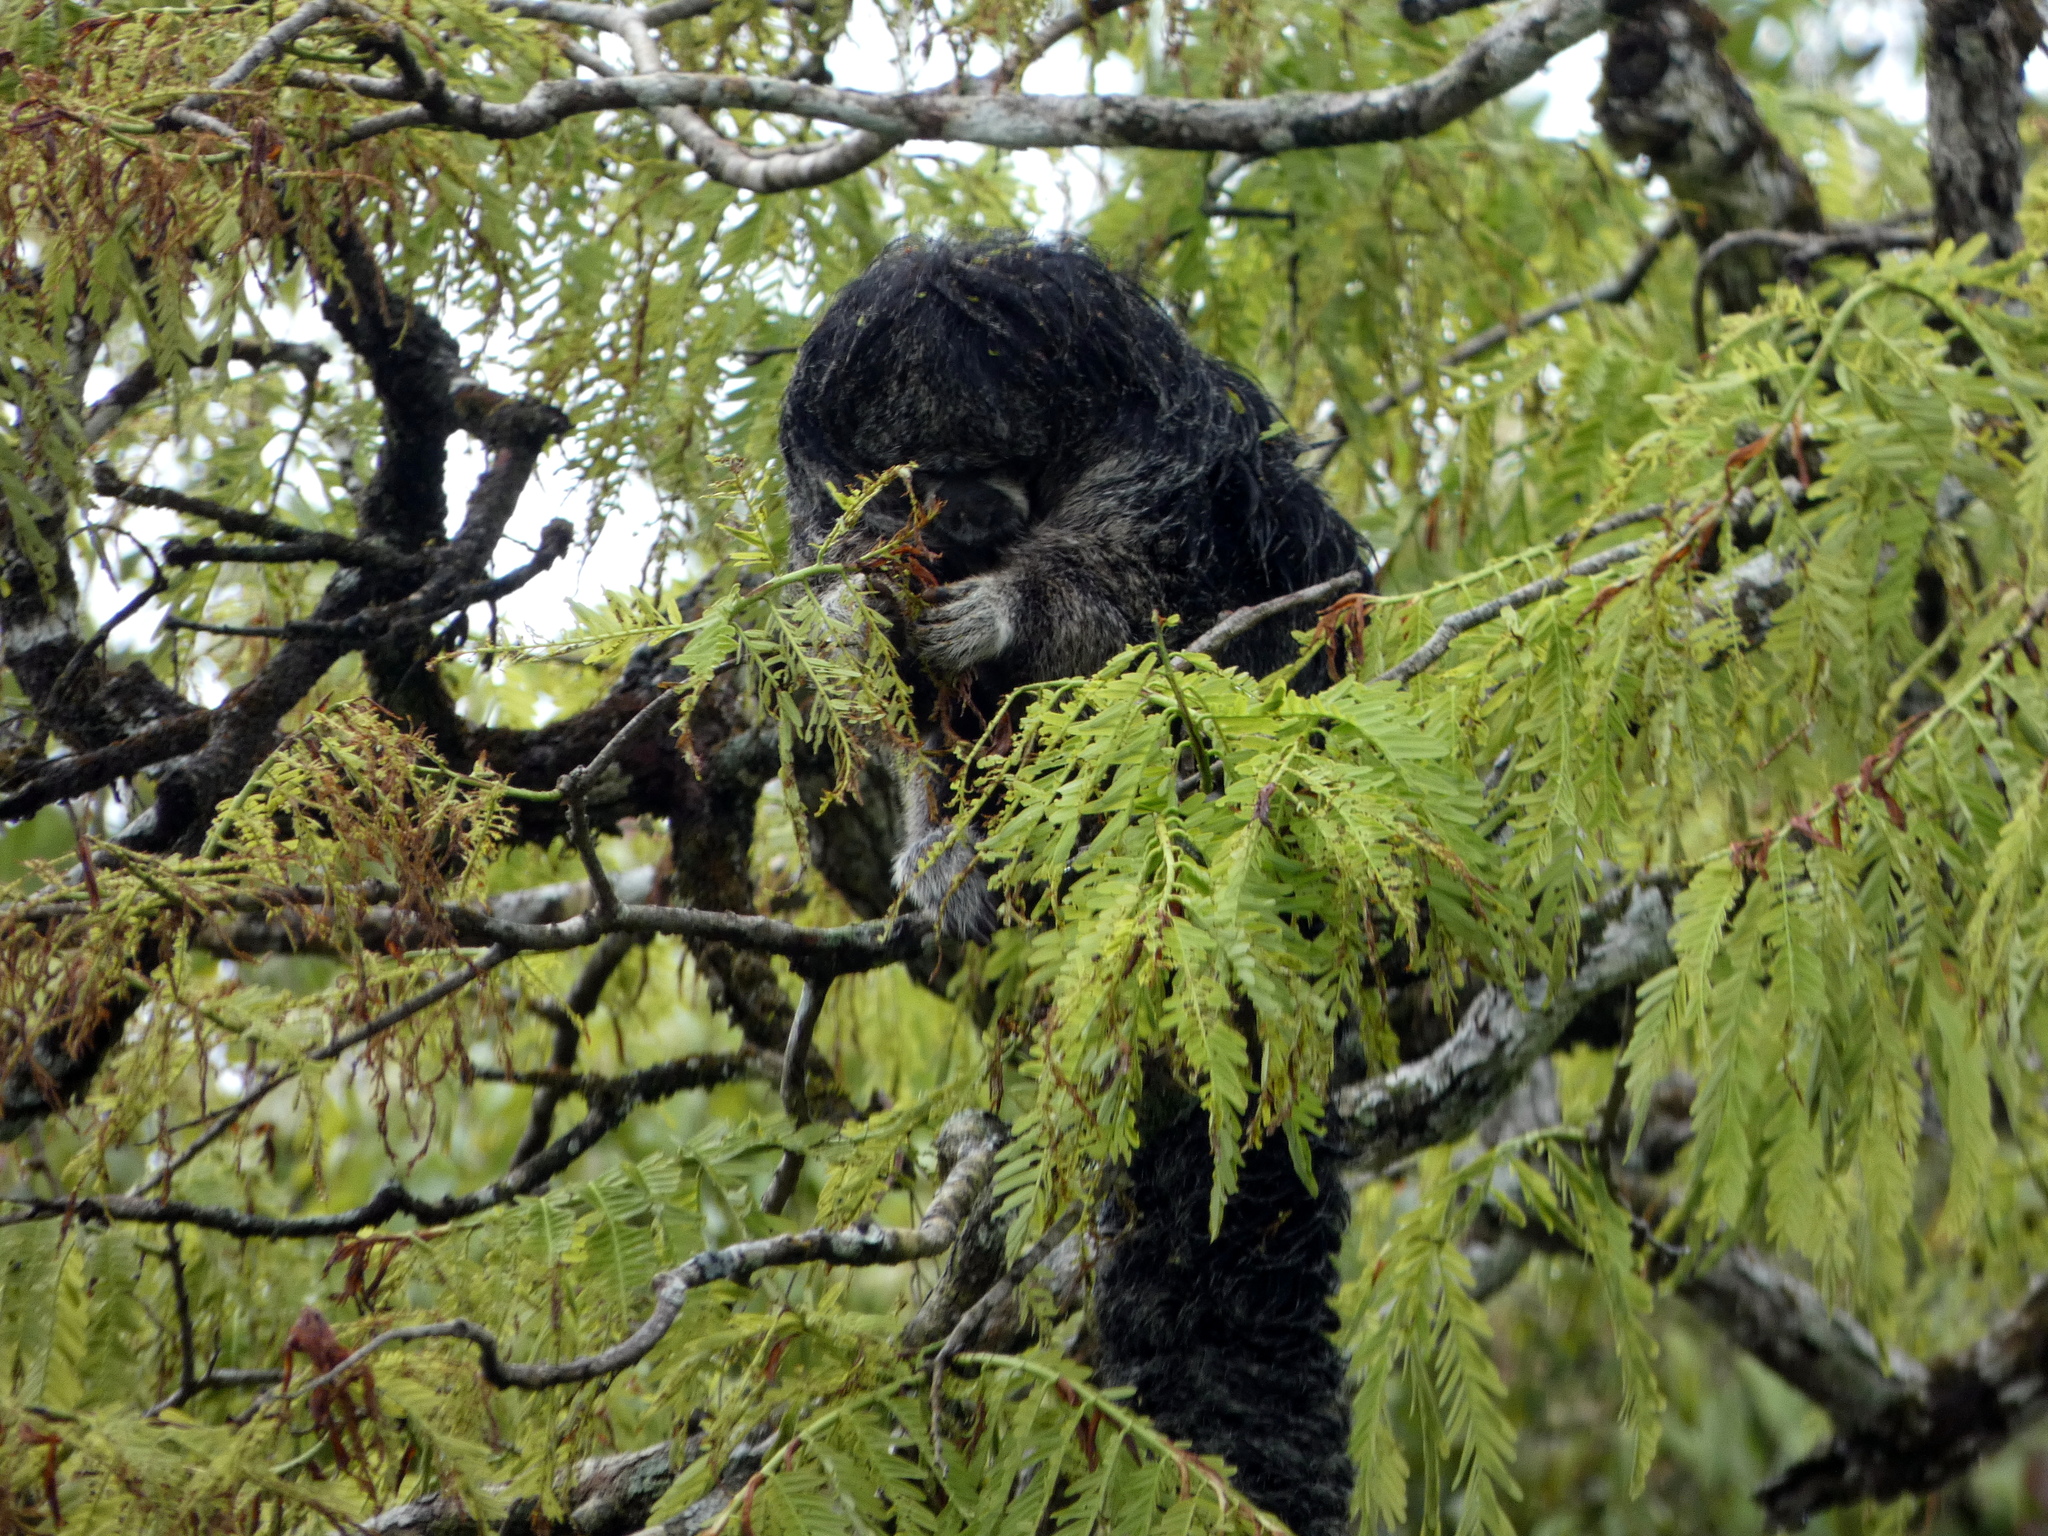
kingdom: Animalia
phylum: Chordata
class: Mammalia
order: Primates
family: Pitheciidae
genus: Pithecia
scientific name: Pithecia milleri
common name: Miller's saki
